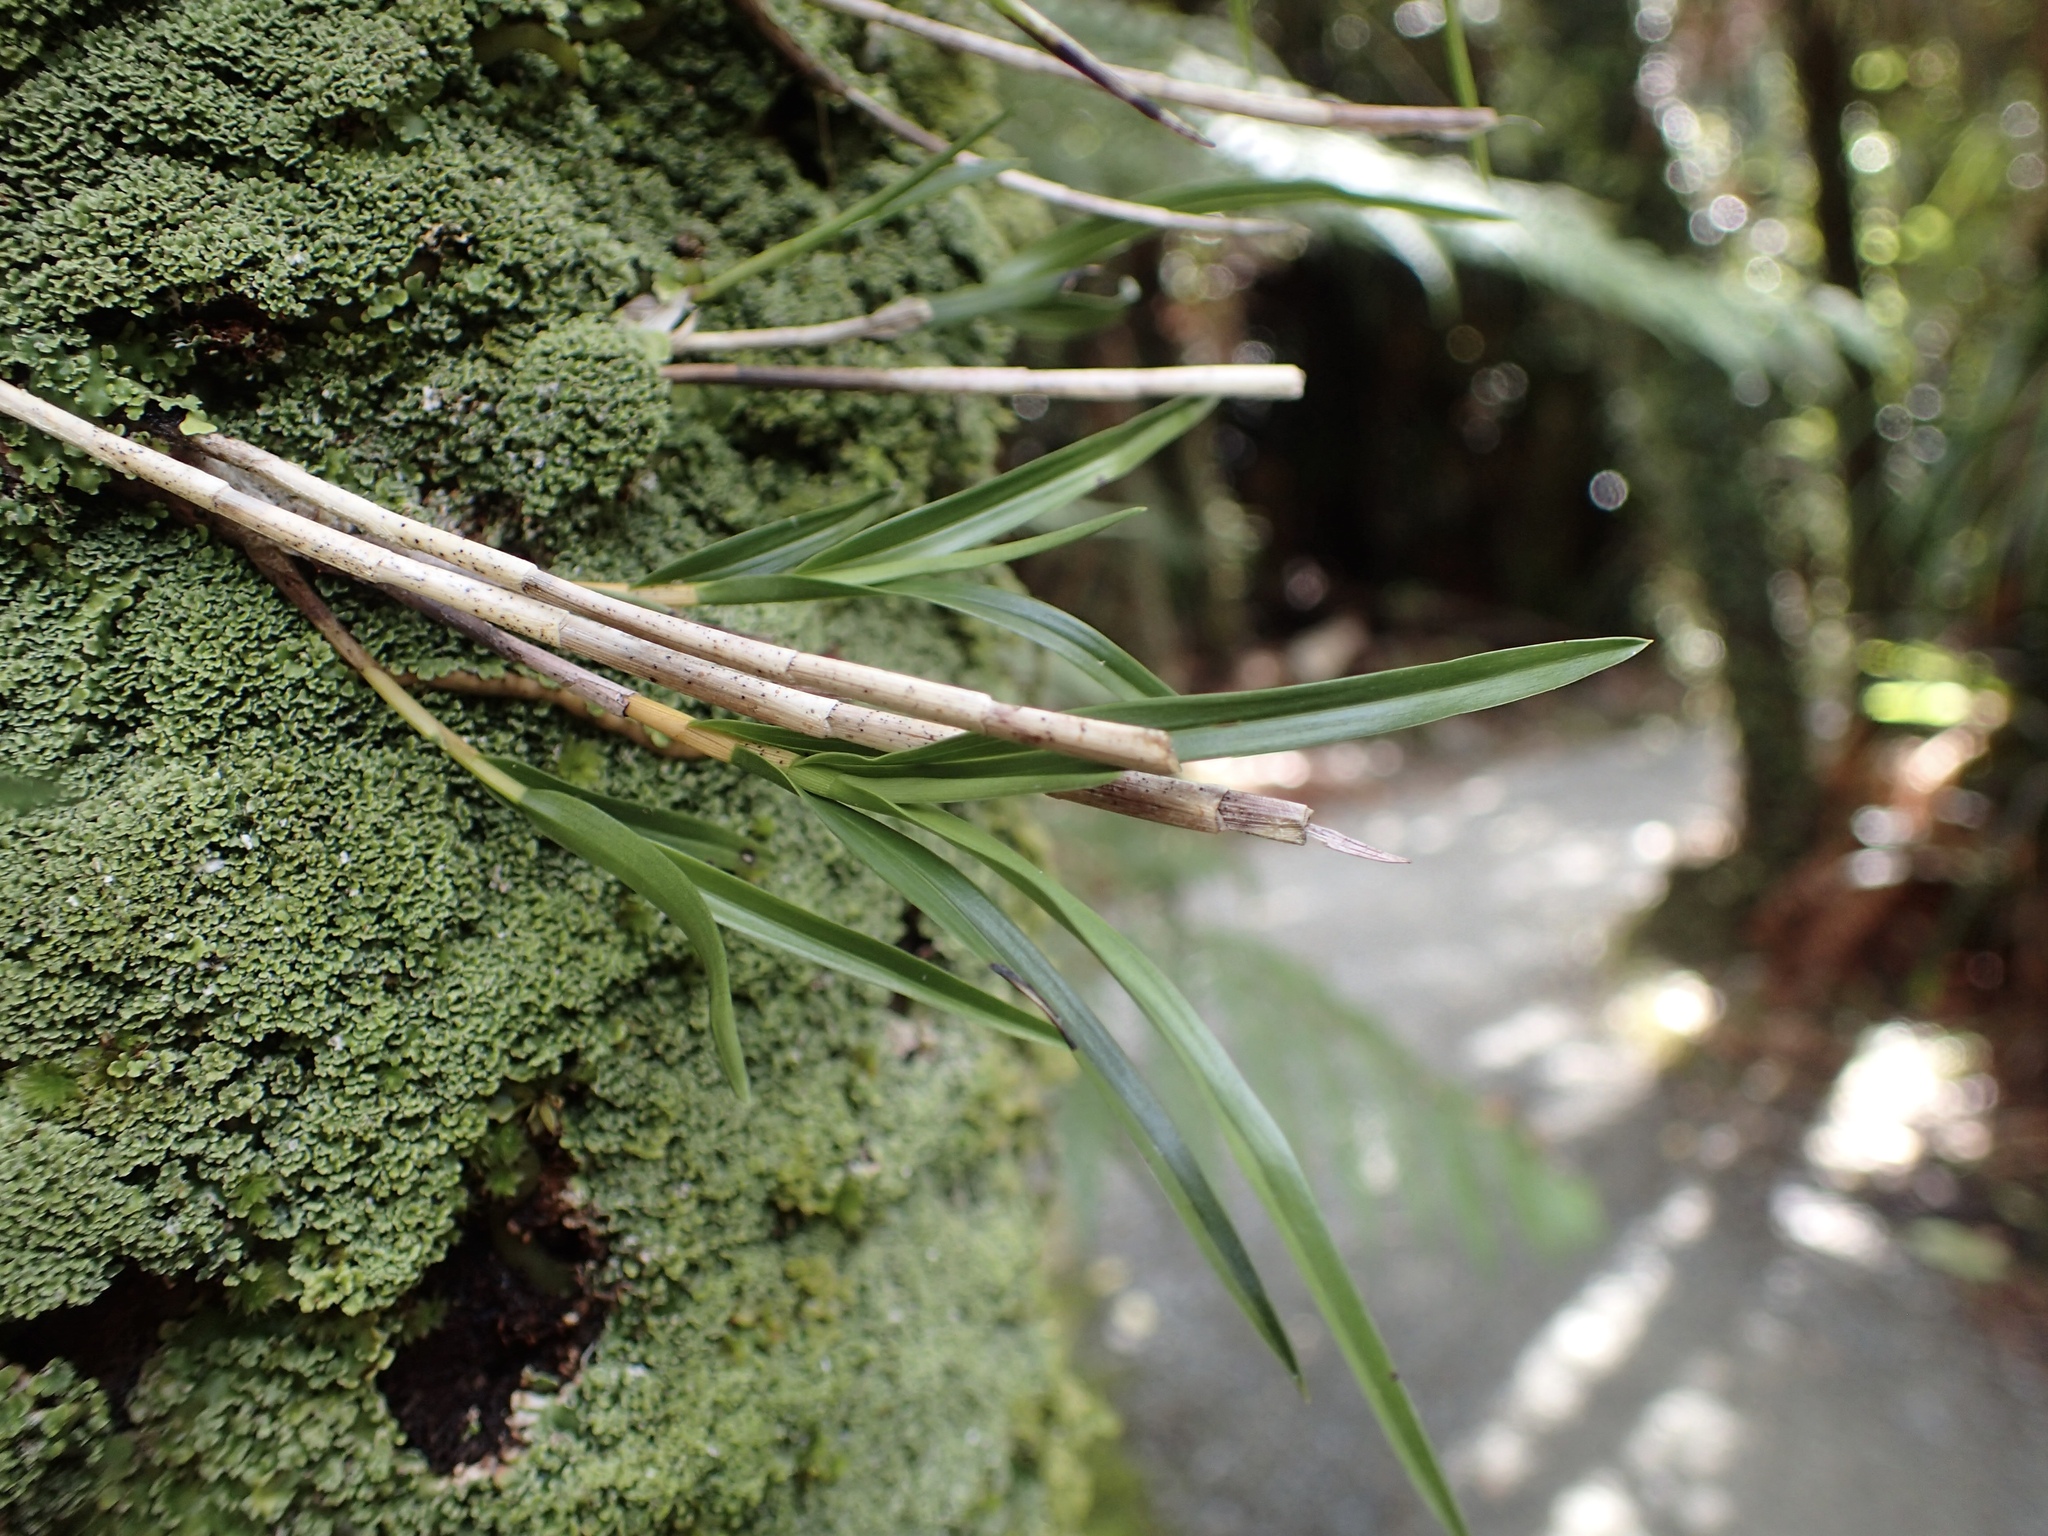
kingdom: Plantae
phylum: Tracheophyta
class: Liliopsida
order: Asparagales
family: Orchidaceae
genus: Earina
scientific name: Earina mucronata
